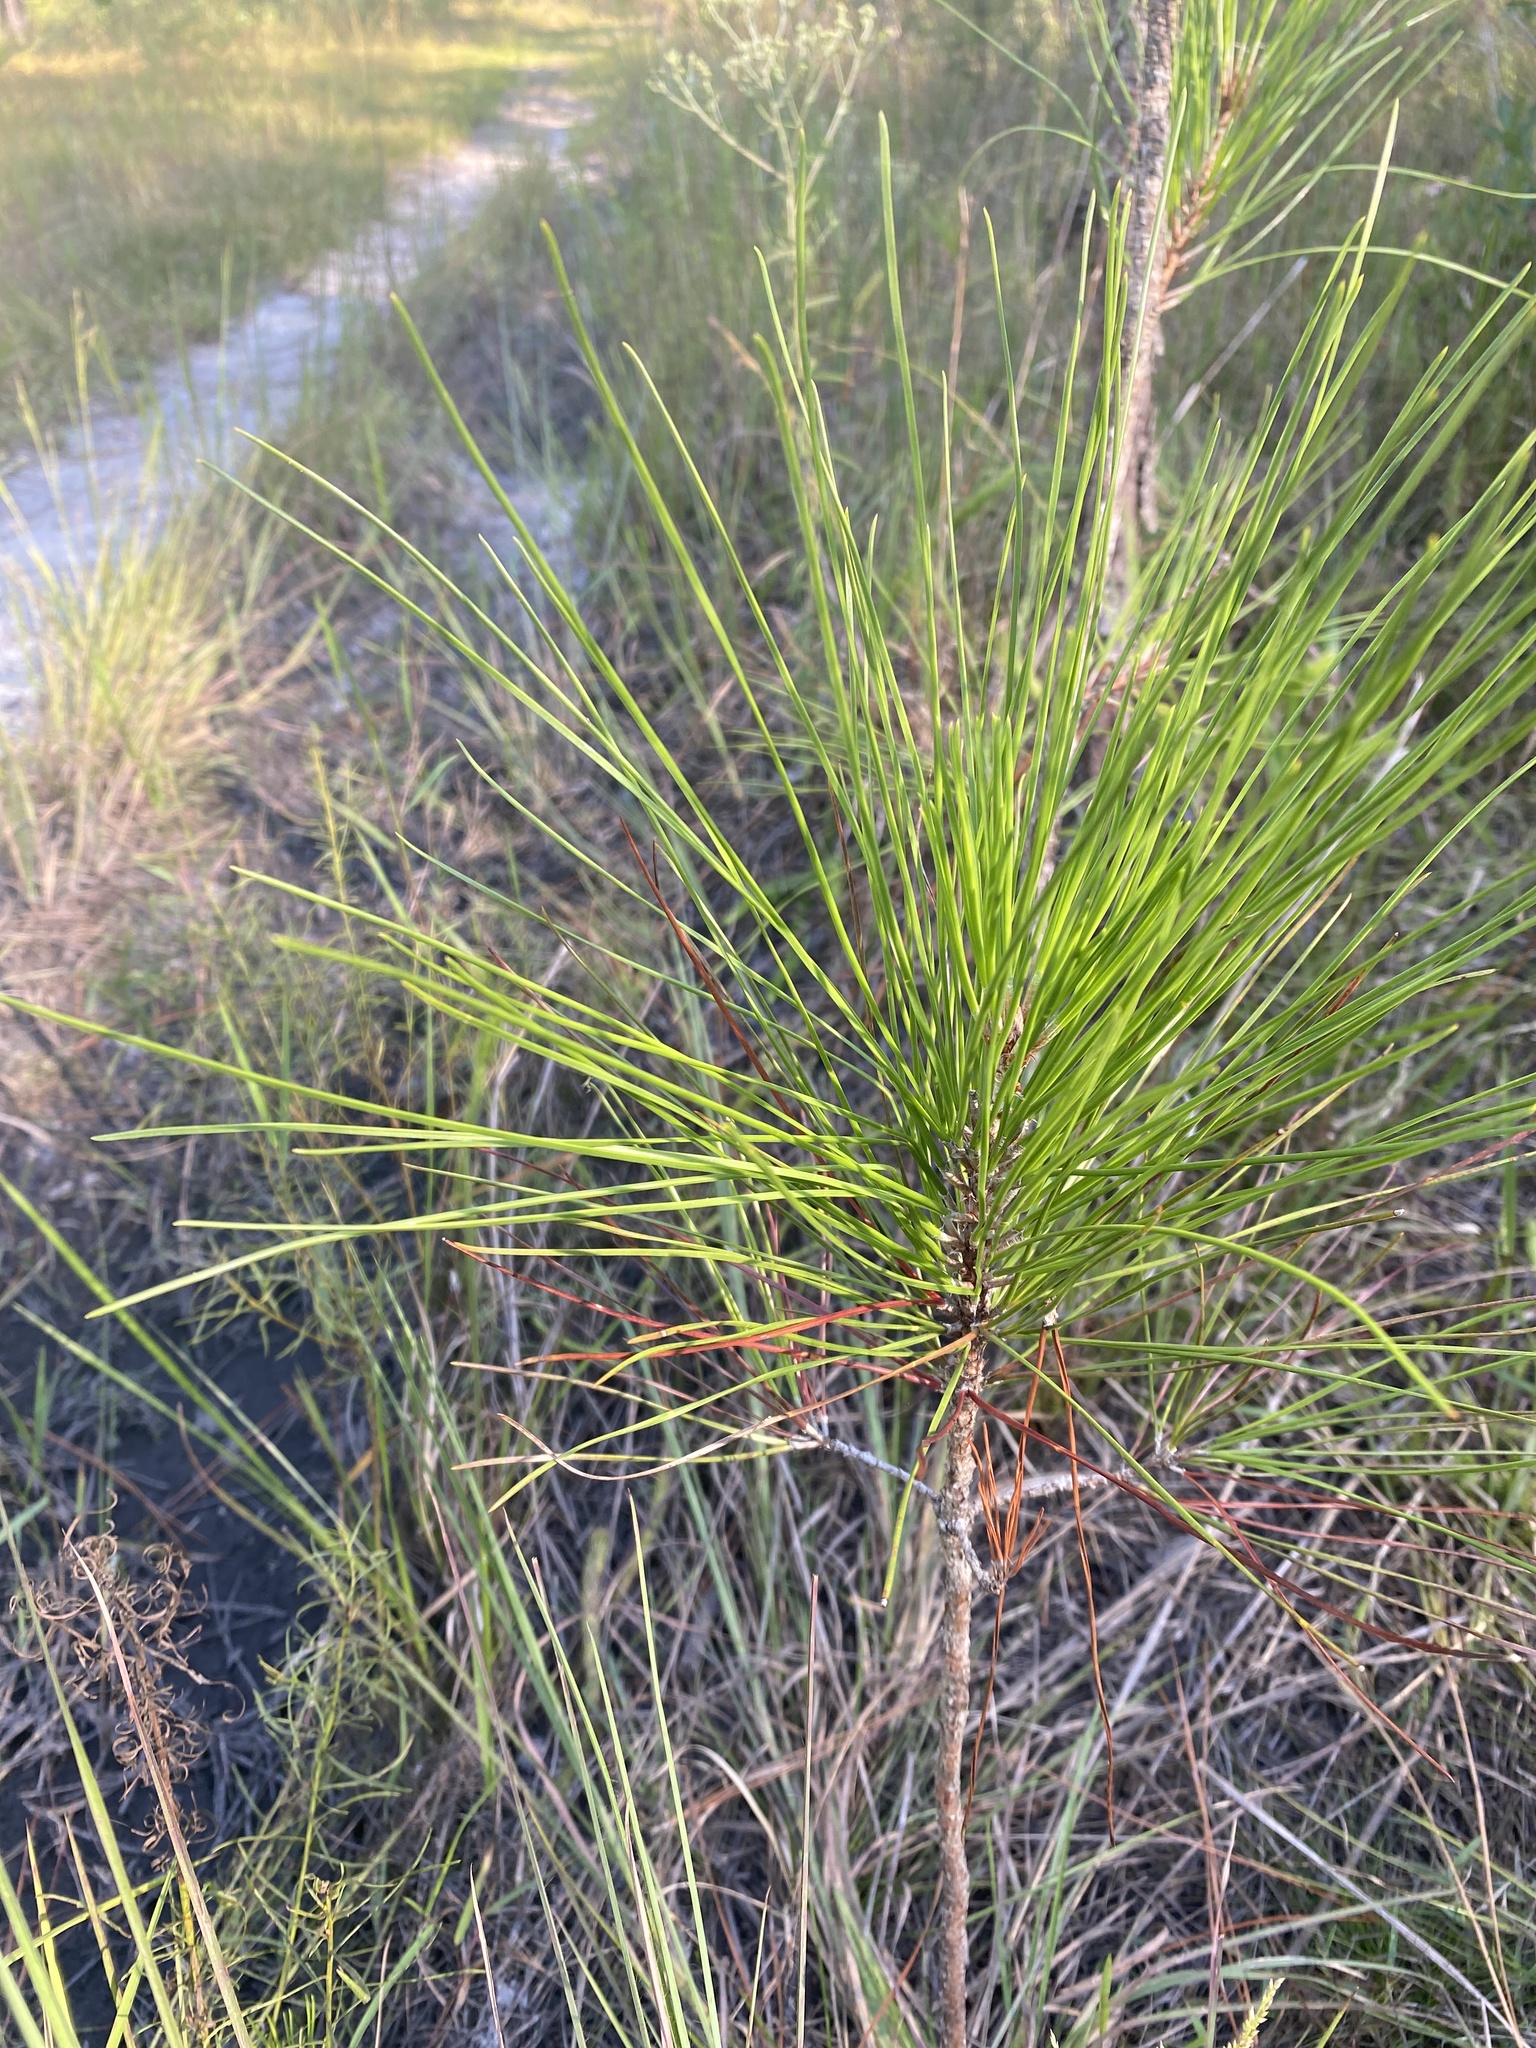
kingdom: Plantae
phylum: Tracheophyta
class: Pinopsida
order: Pinales
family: Pinaceae
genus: Pinus
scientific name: Pinus elliottii
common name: Slash pine
